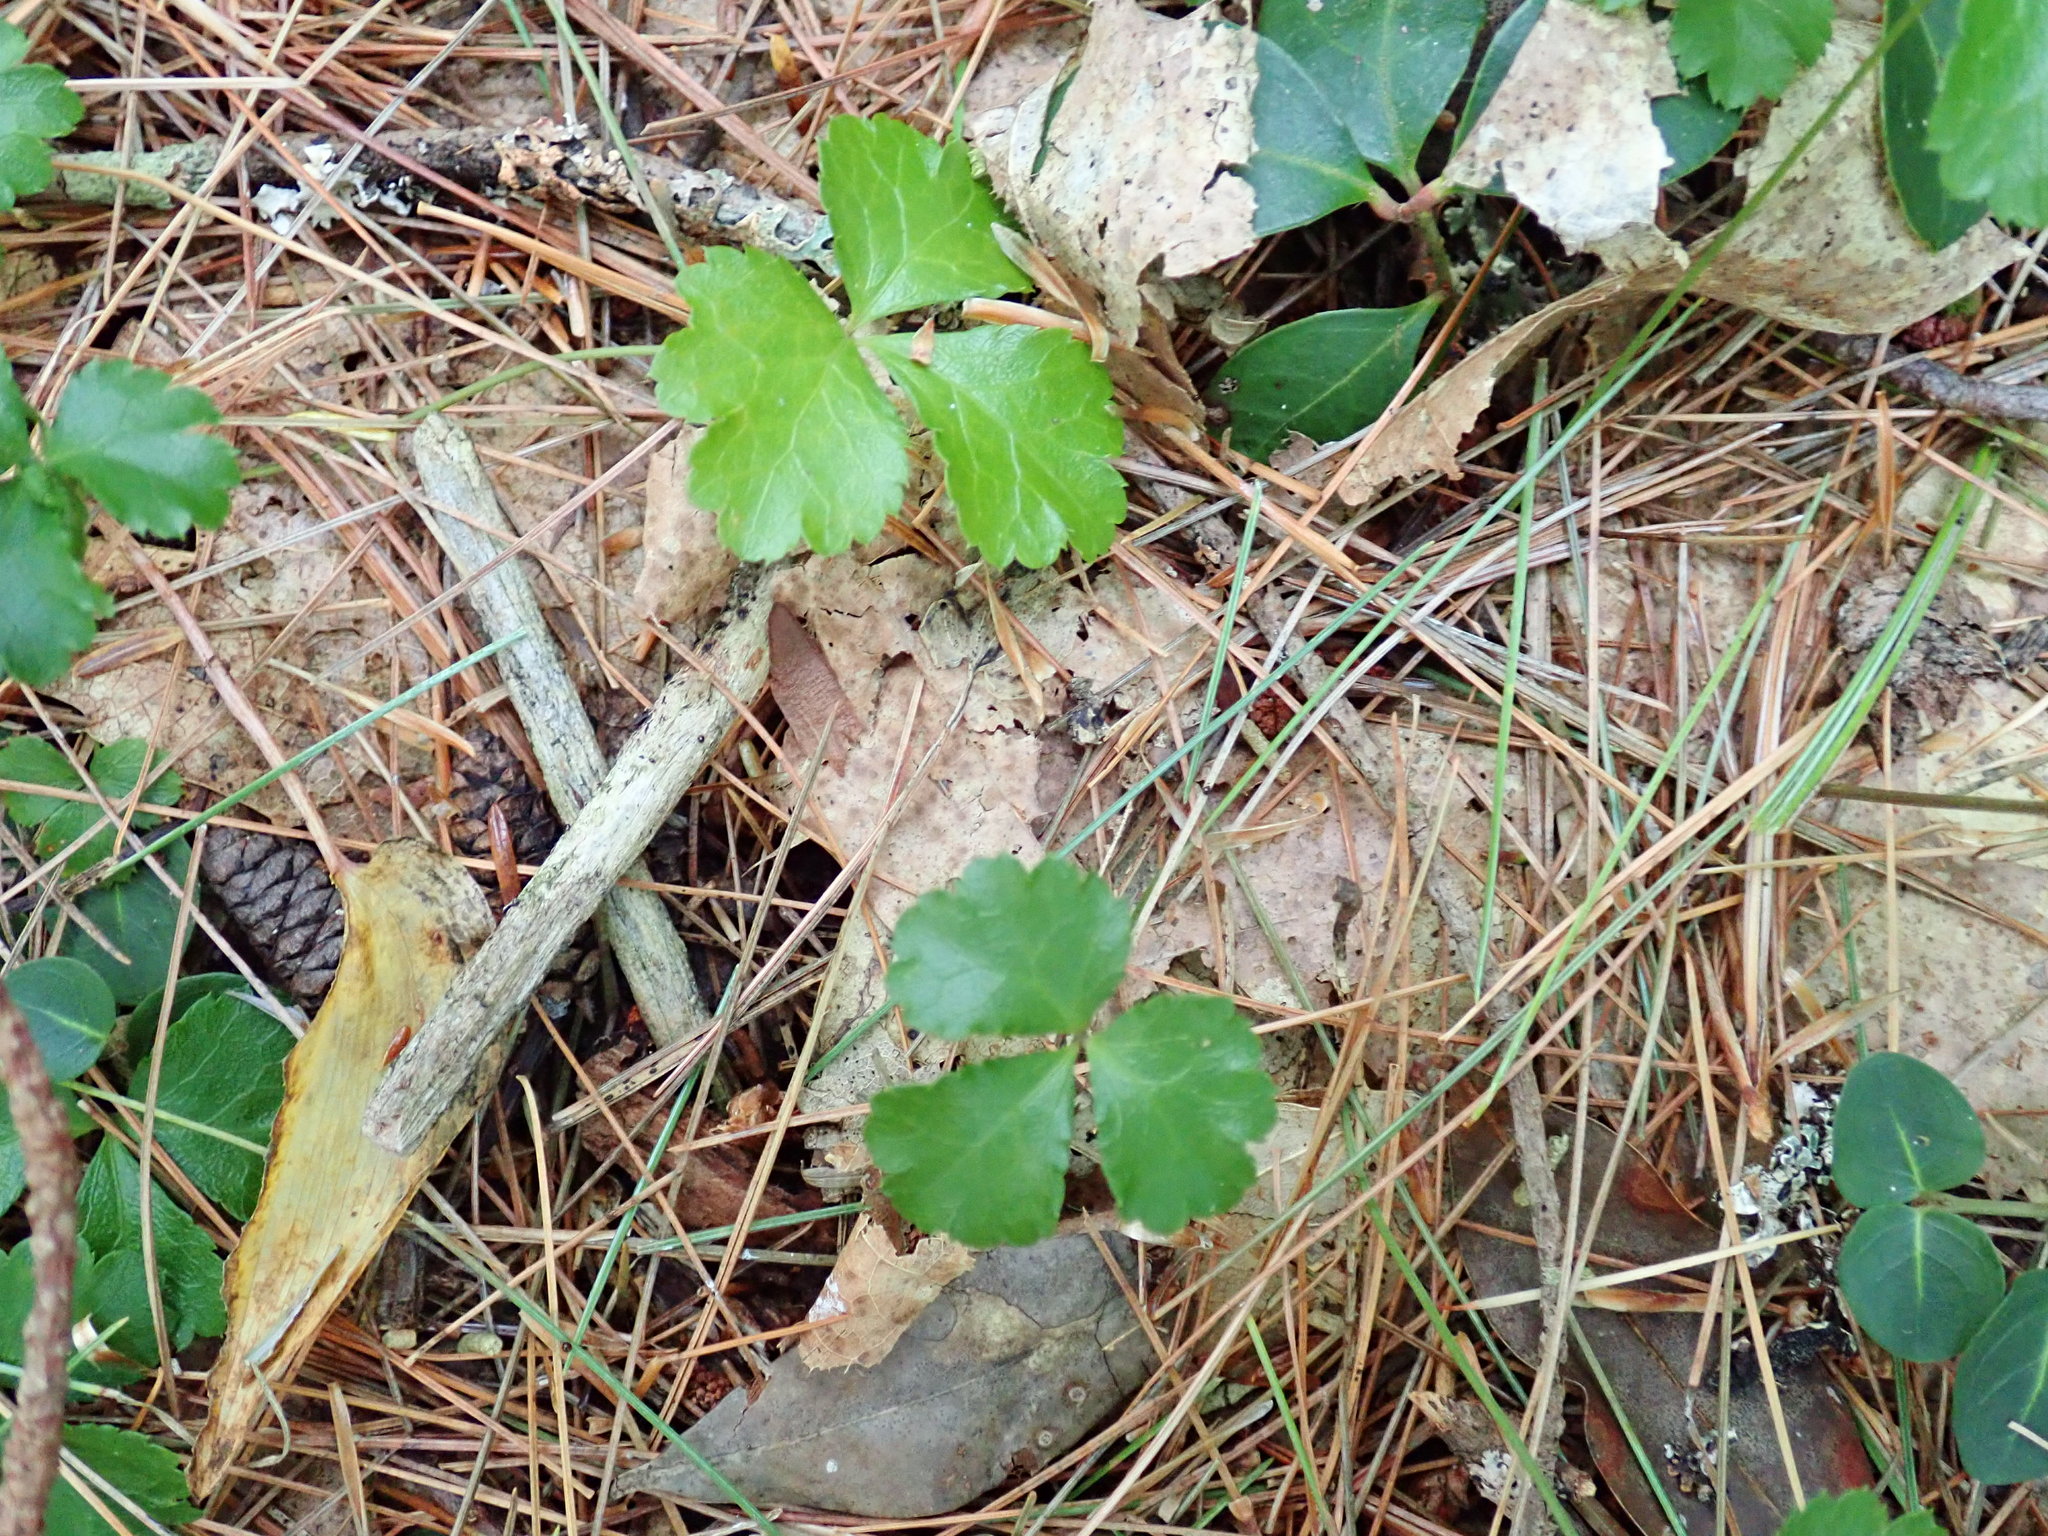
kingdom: Plantae
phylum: Tracheophyta
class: Magnoliopsida
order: Ranunculales
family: Ranunculaceae
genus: Coptis
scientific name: Coptis trifolia
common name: Canker-root
